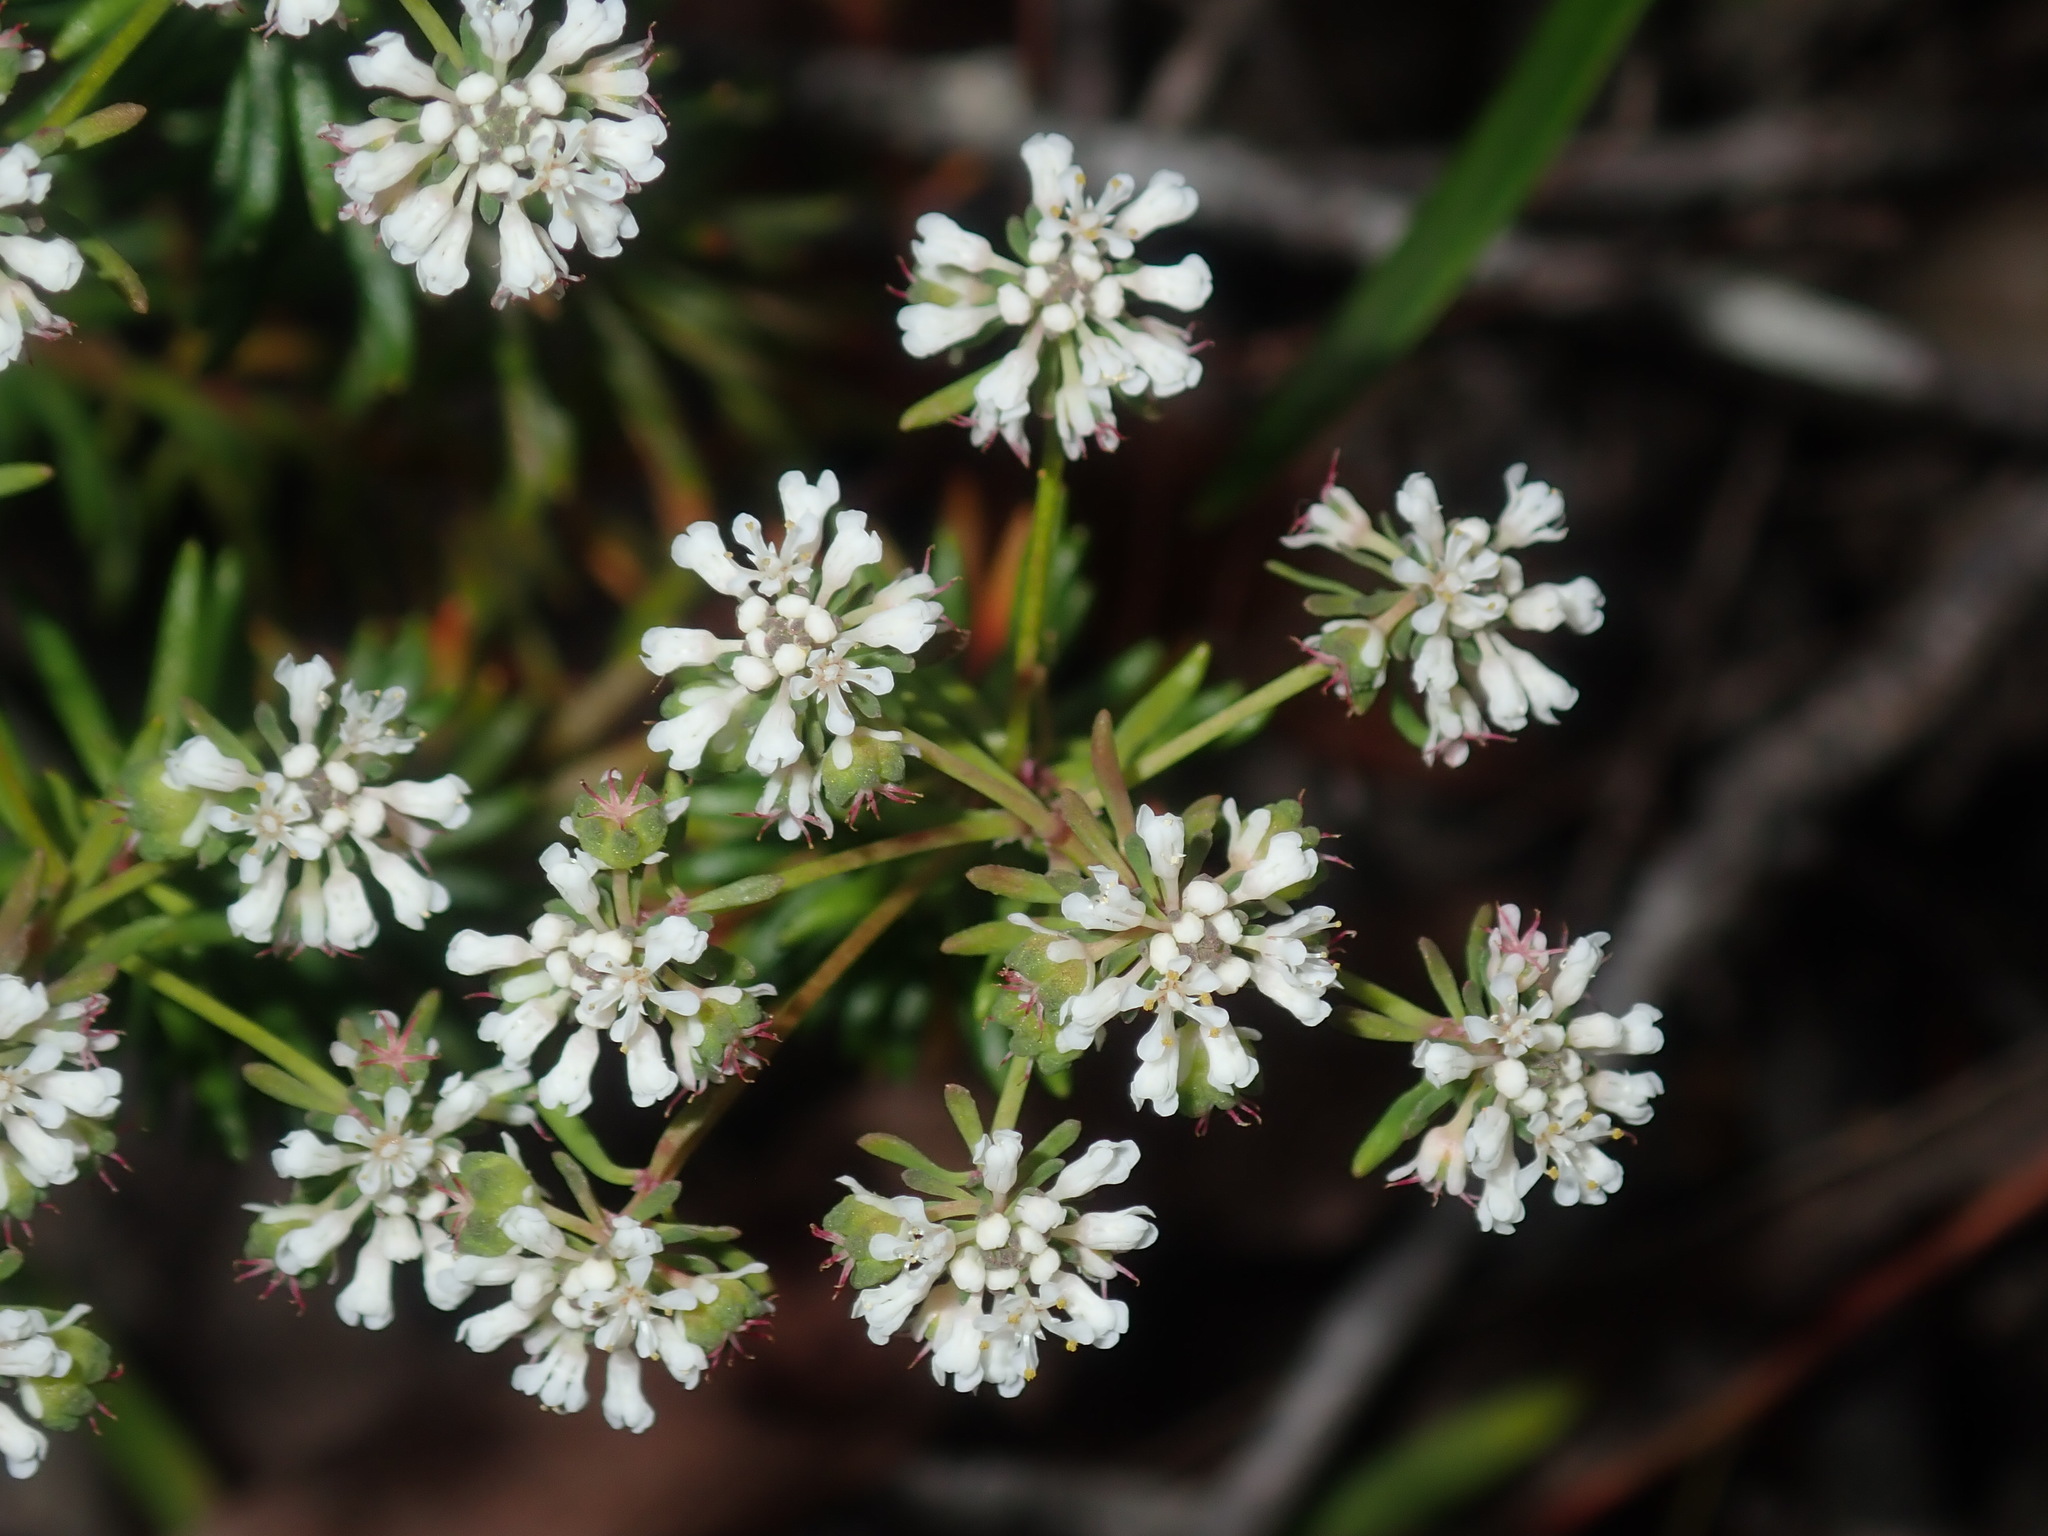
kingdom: Plantae
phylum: Tracheophyta
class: Magnoliopsida
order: Malpighiales
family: Phyllanthaceae
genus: Poranthera
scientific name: Poranthera ericifolia
